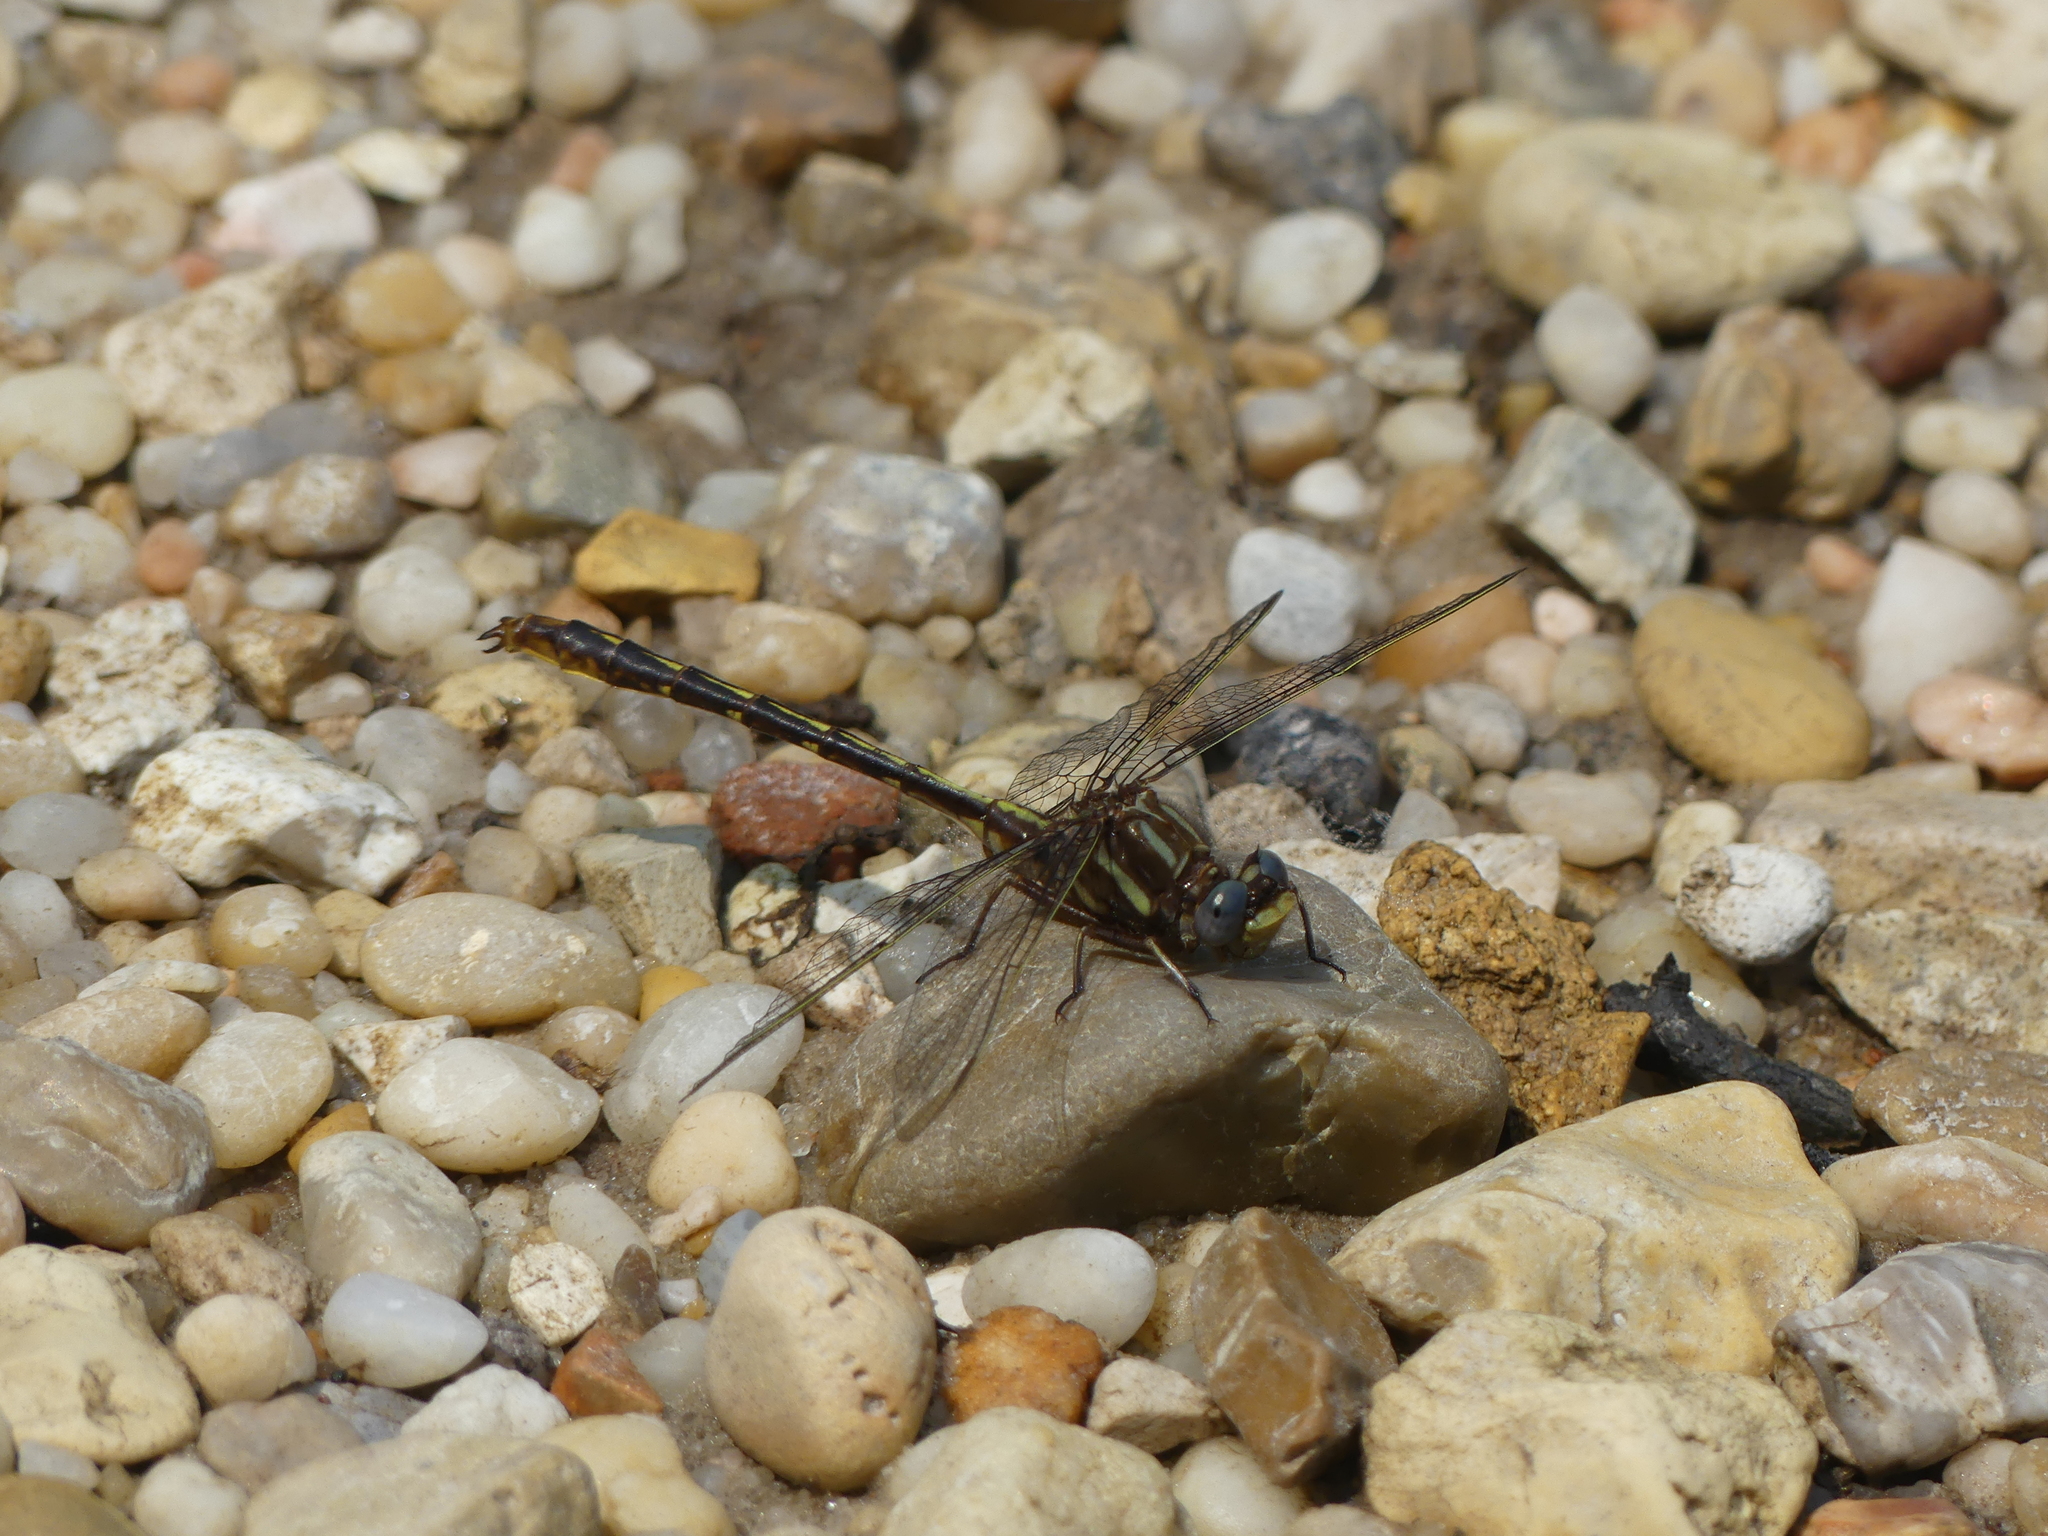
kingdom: Animalia
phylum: Arthropoda
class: Insecta
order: Odonata
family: Gomphidae
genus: Phanogomphus
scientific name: Phanogomphus lividus
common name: Ashy clubtail
